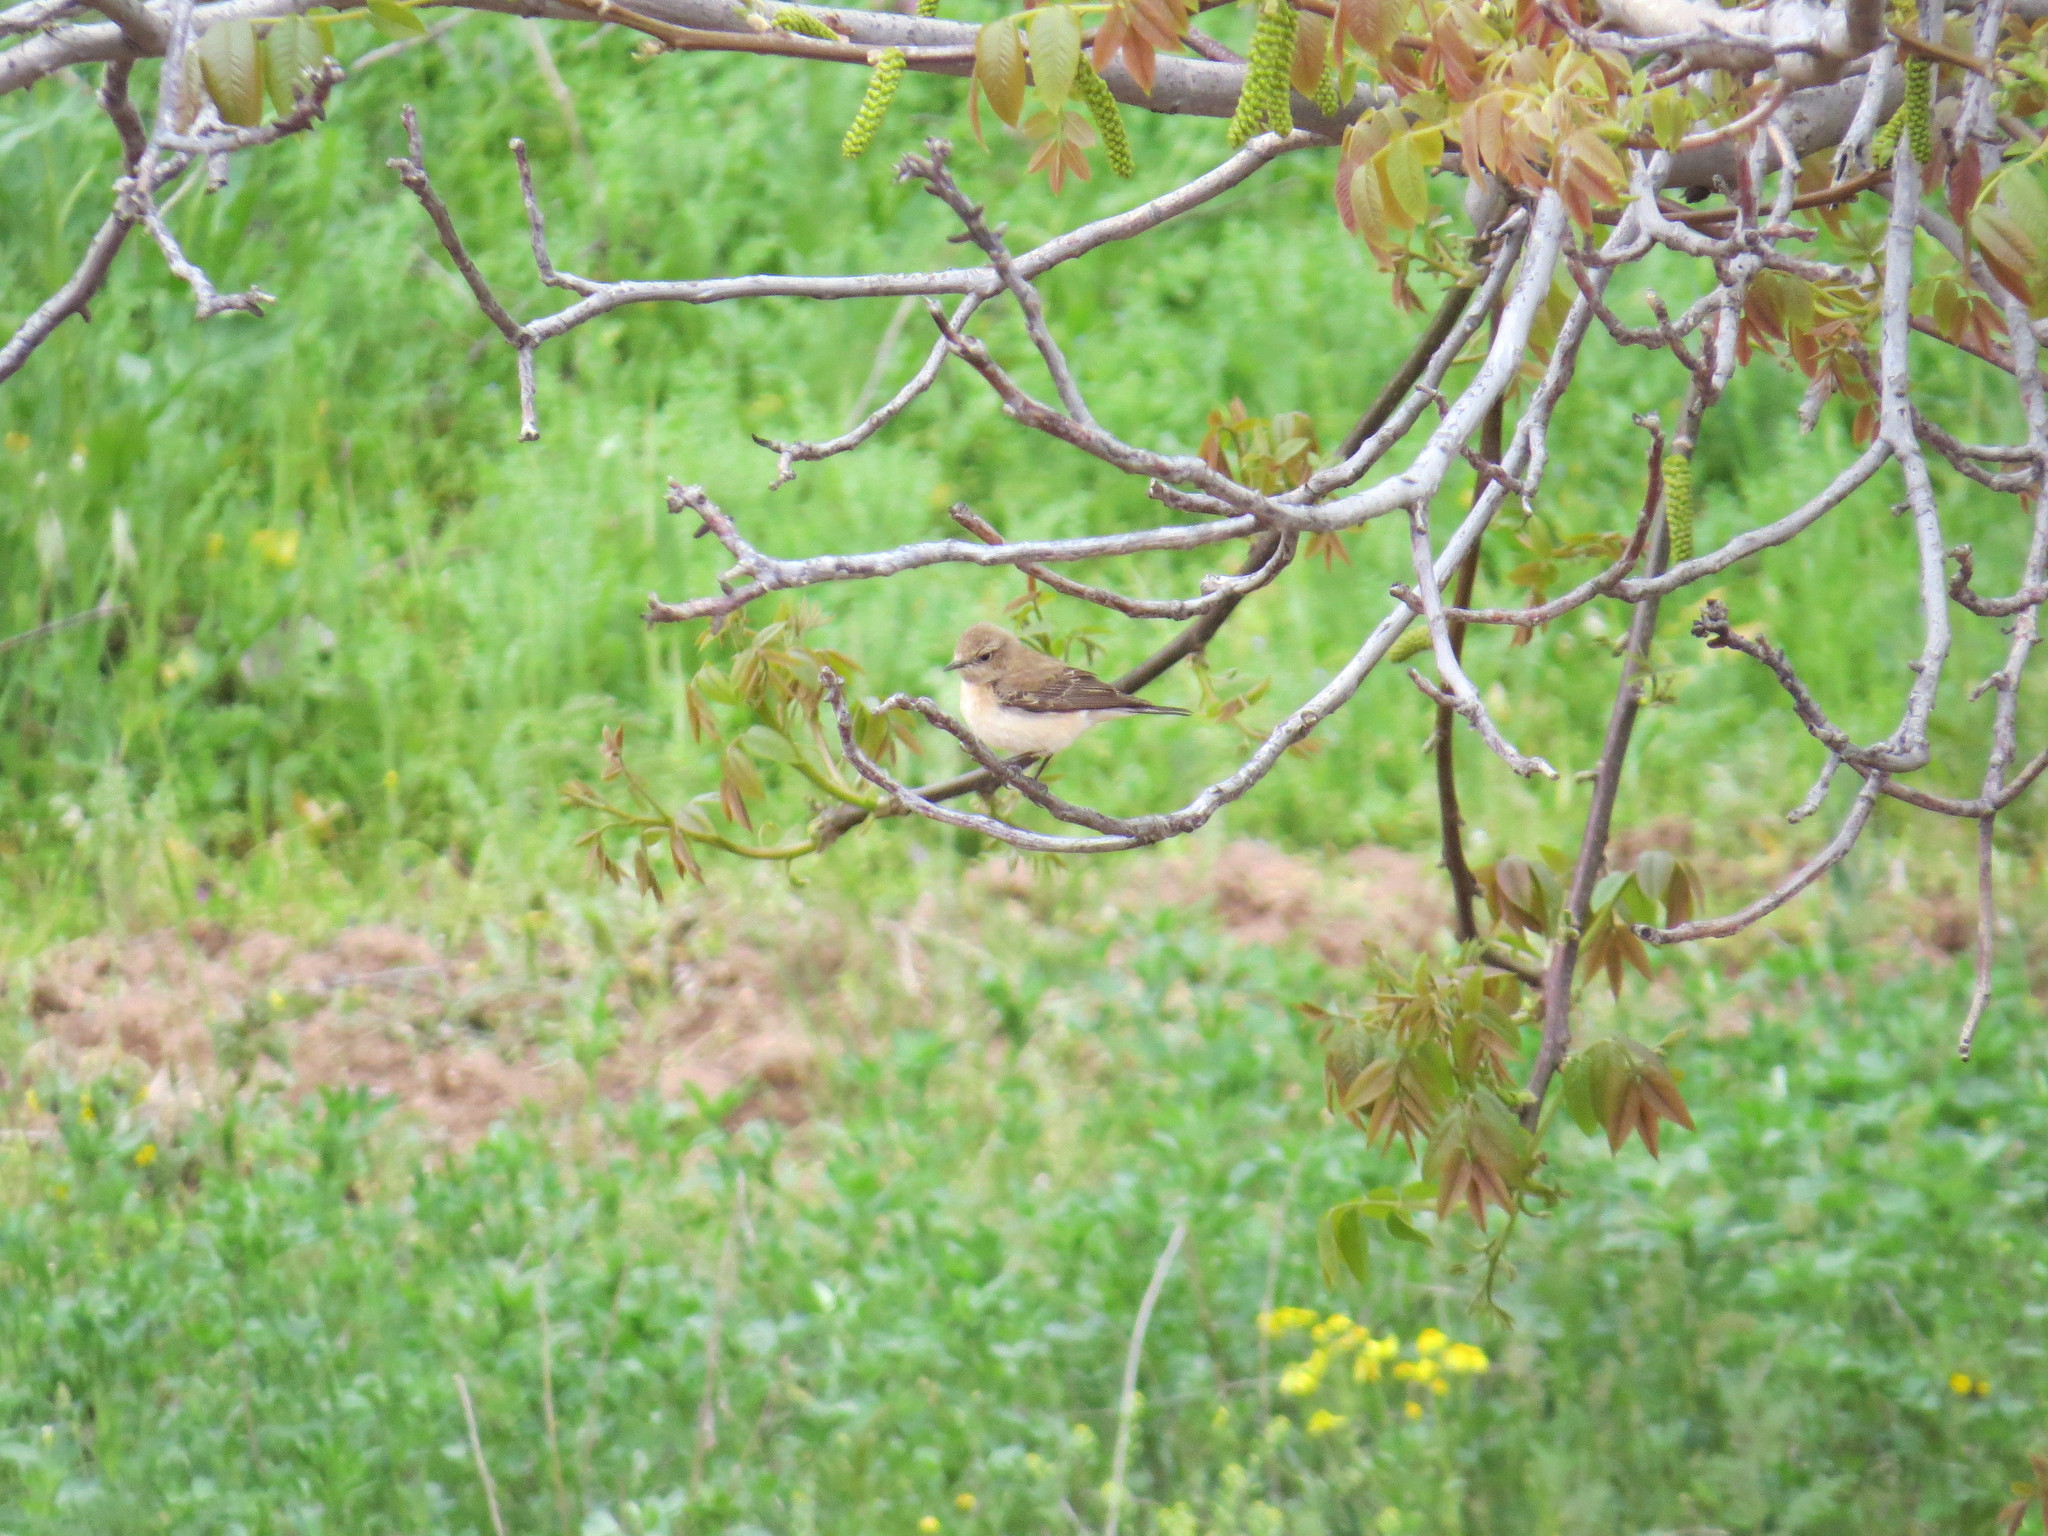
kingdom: Animalia
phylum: Chordata
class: Aves
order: Passeriformes
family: Muscicapidae
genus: Oenanthe
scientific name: Oenanthe hispanica
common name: Black-eared wheatear
